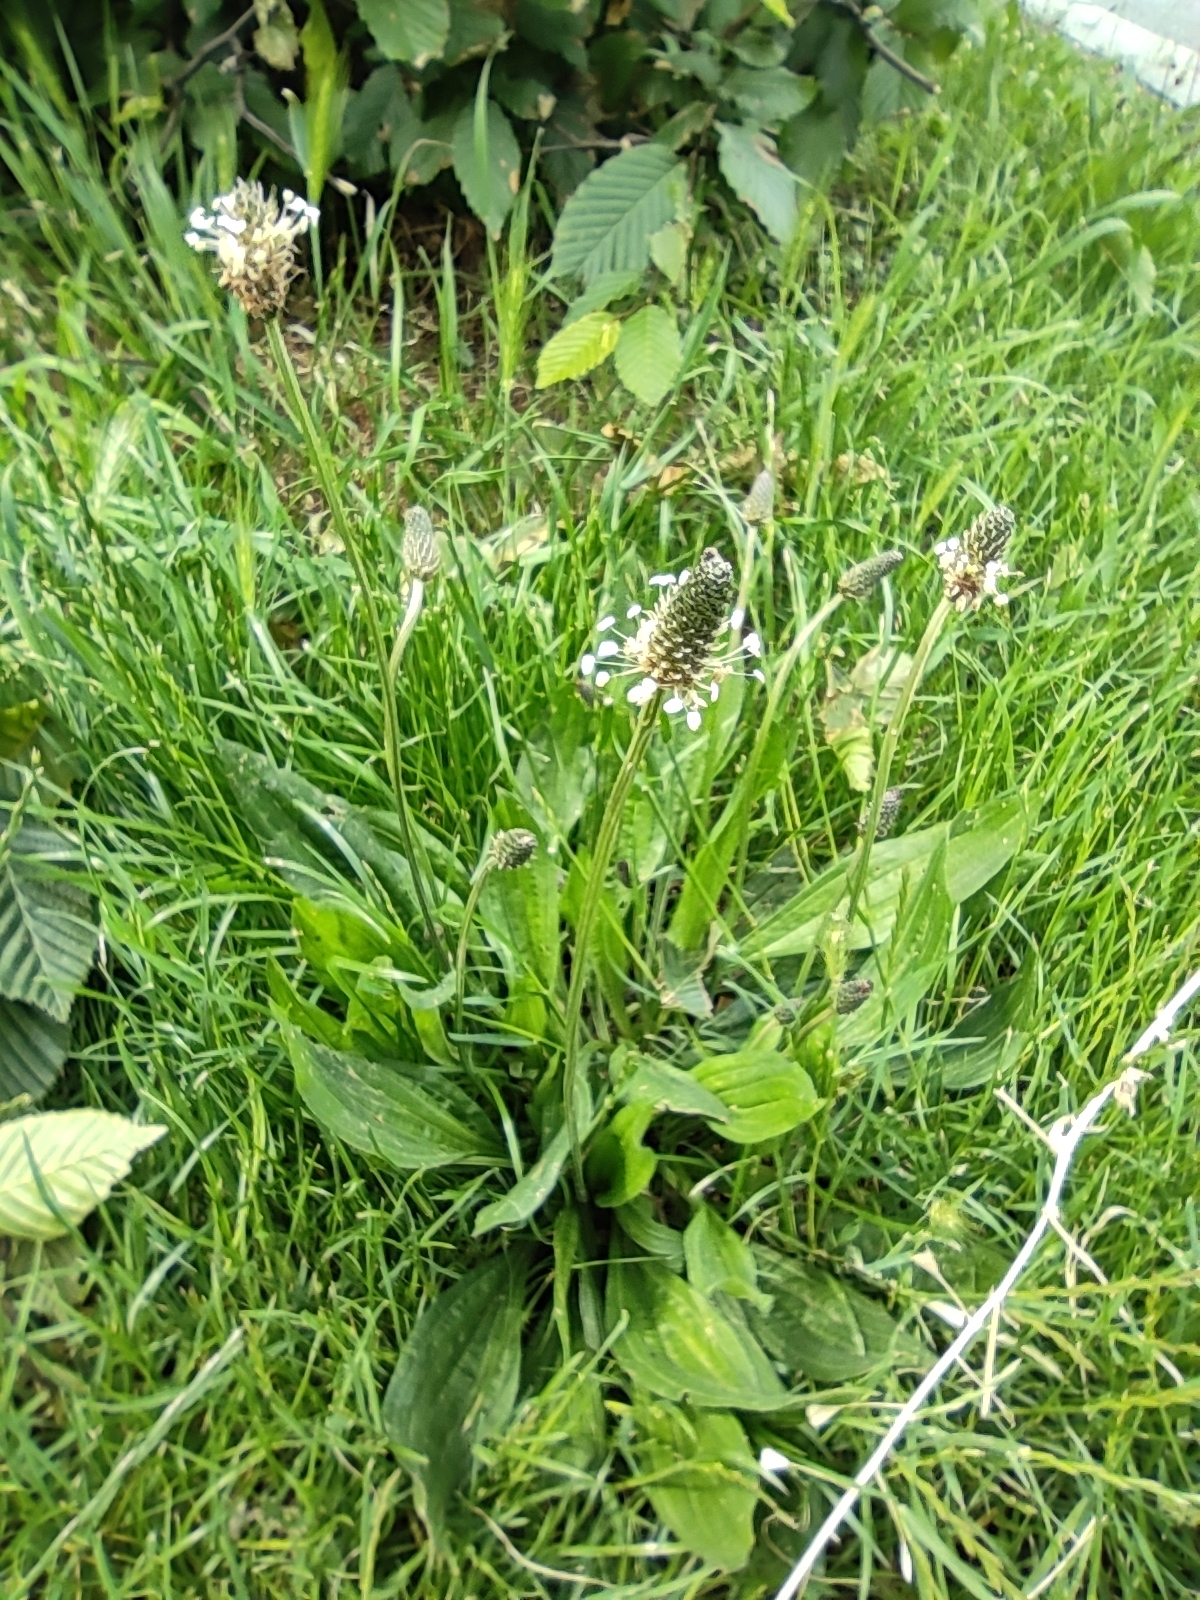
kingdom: Plantae
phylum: Tracheophyta
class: Magnoliopsida
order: Lamiales
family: Plantaginaceae
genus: Plantago
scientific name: Plantago lanceolata
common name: Ribwort plantain
